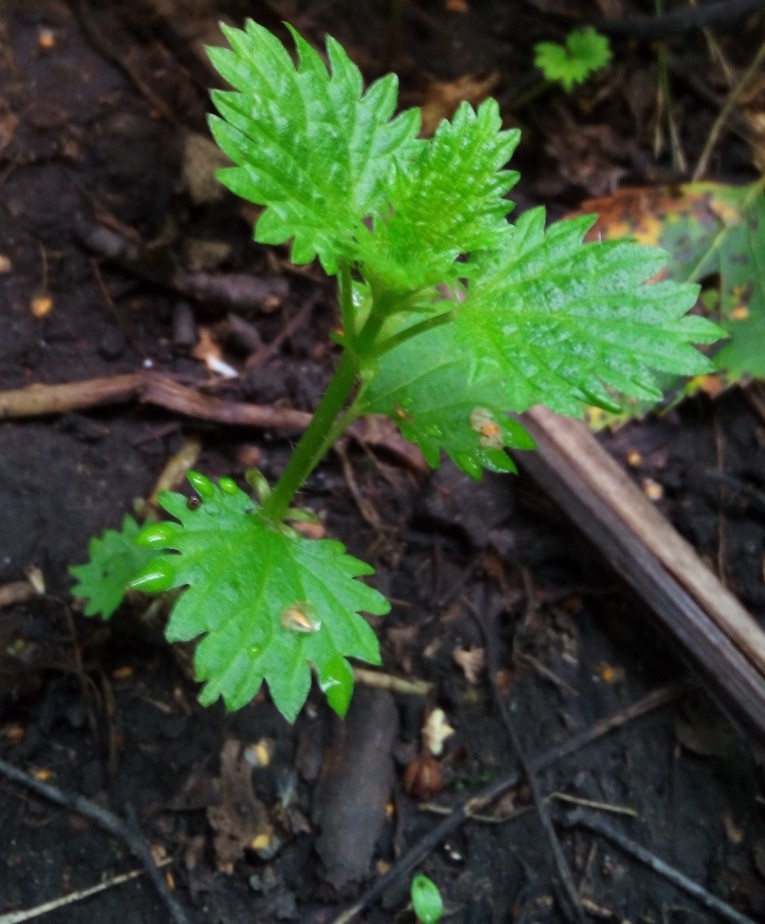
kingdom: Plantae
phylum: Tracheophyta
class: Magnoliopsida
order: Rosales
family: Urticaceae
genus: Urtica
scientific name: Urtica urens
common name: Dwarf nettle
